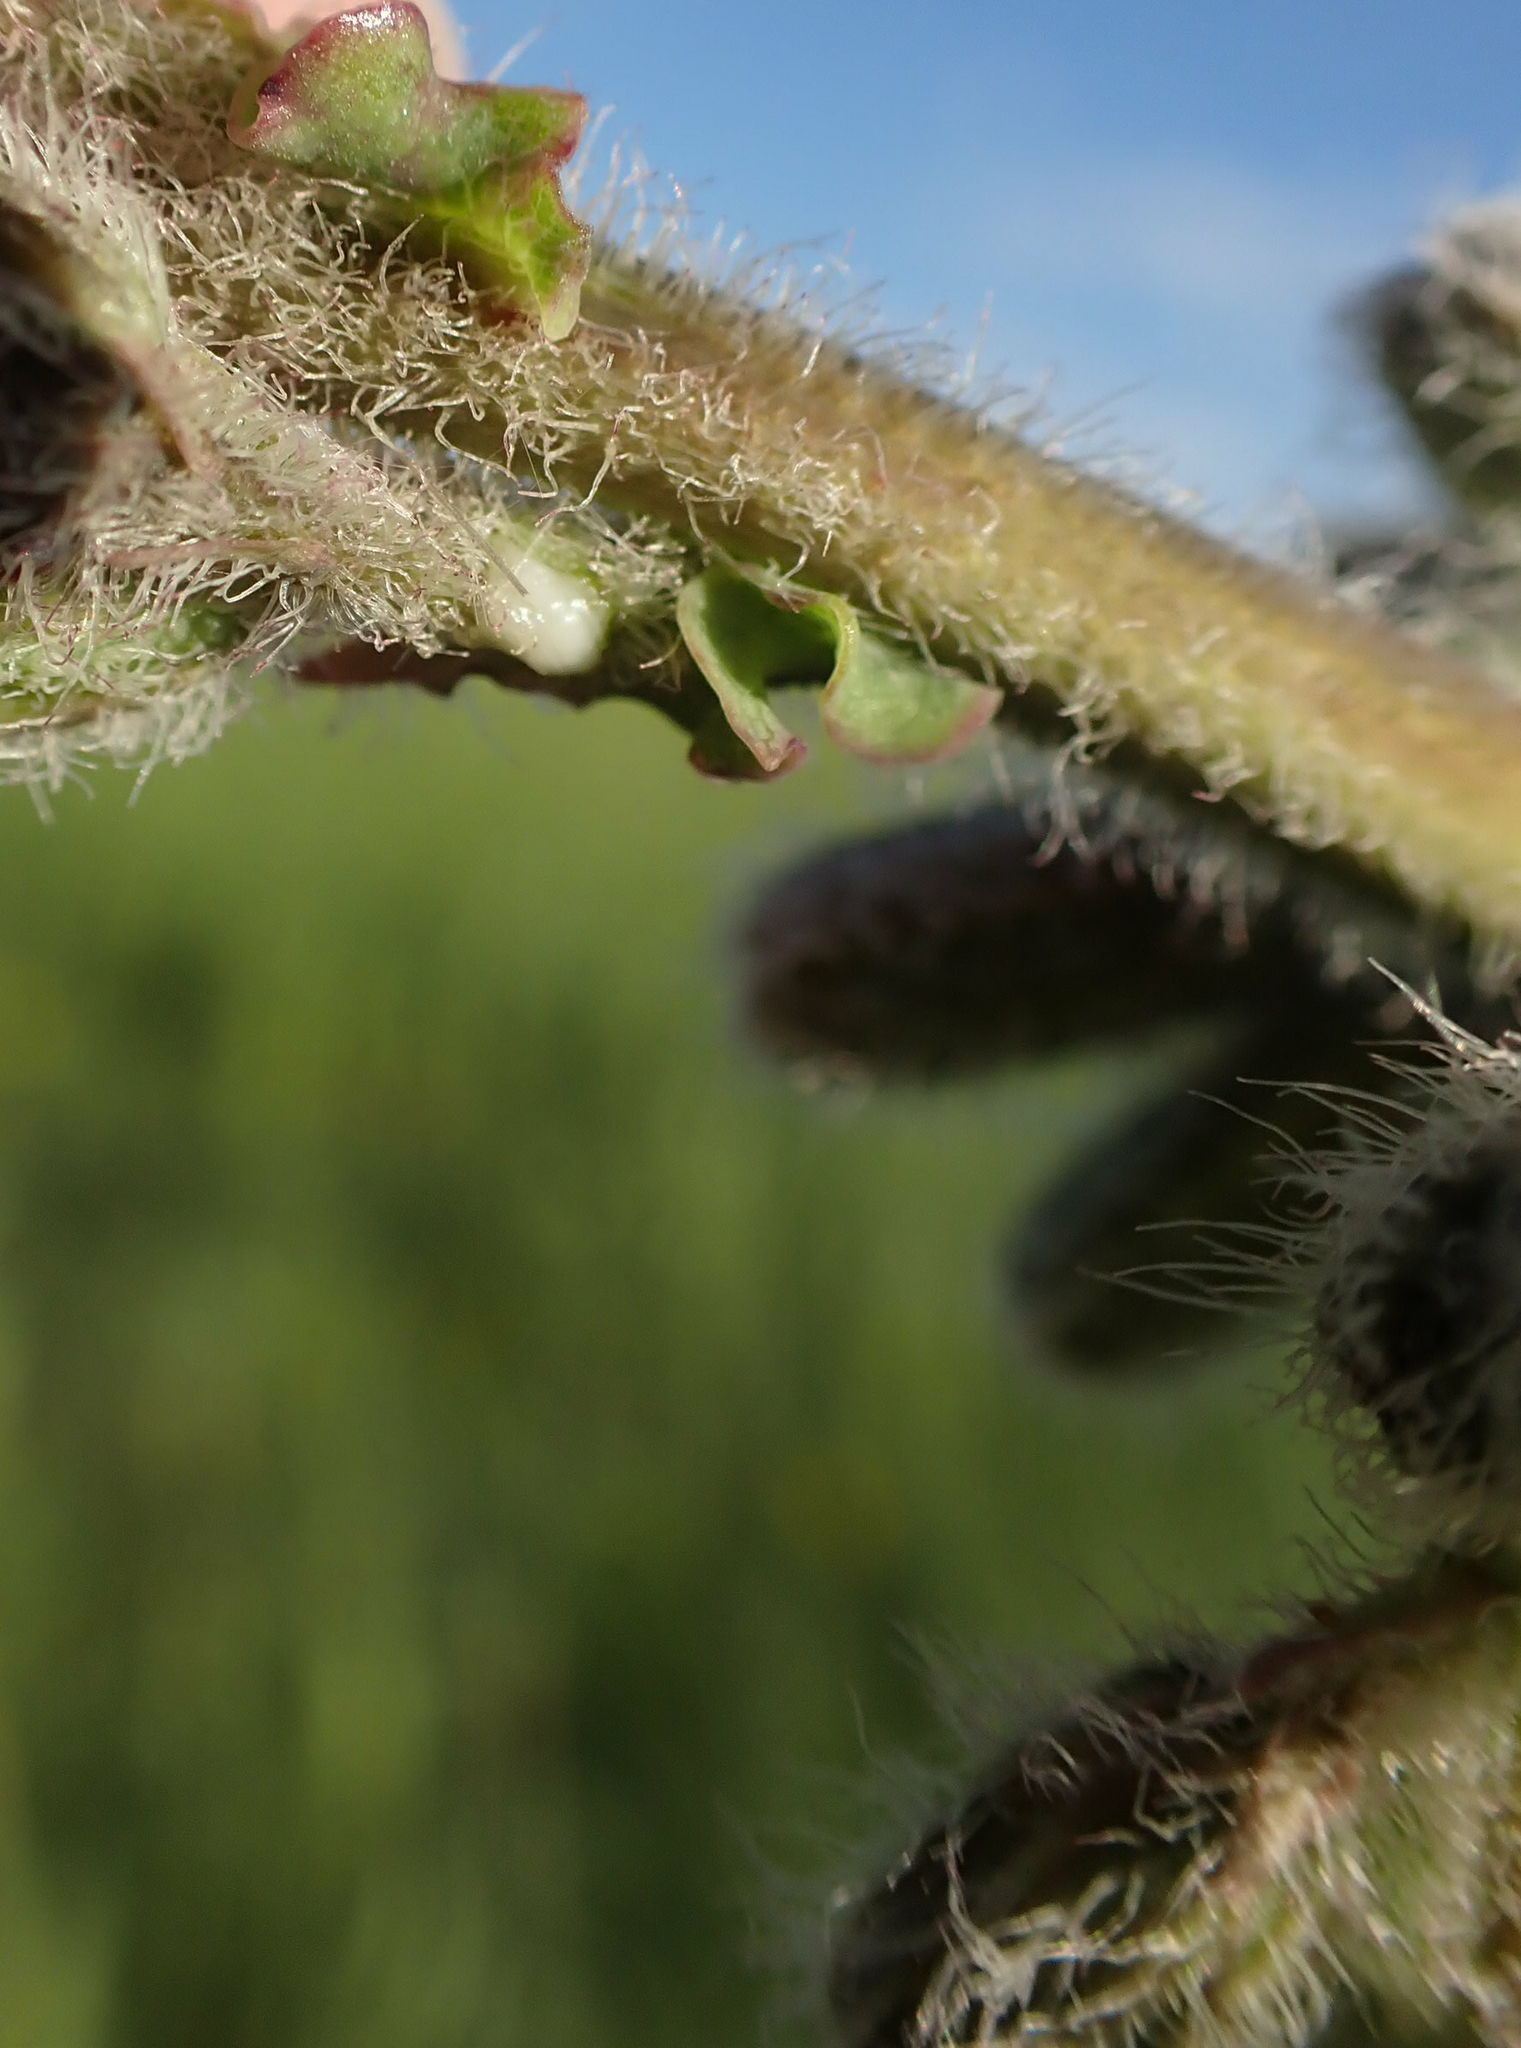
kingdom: Plantae
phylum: Tracheophyta
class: Magnoliopsida
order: Asterales
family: Asteraceae
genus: Nabalus
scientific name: Nabalus racemosus
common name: Glaucous white lettuce
